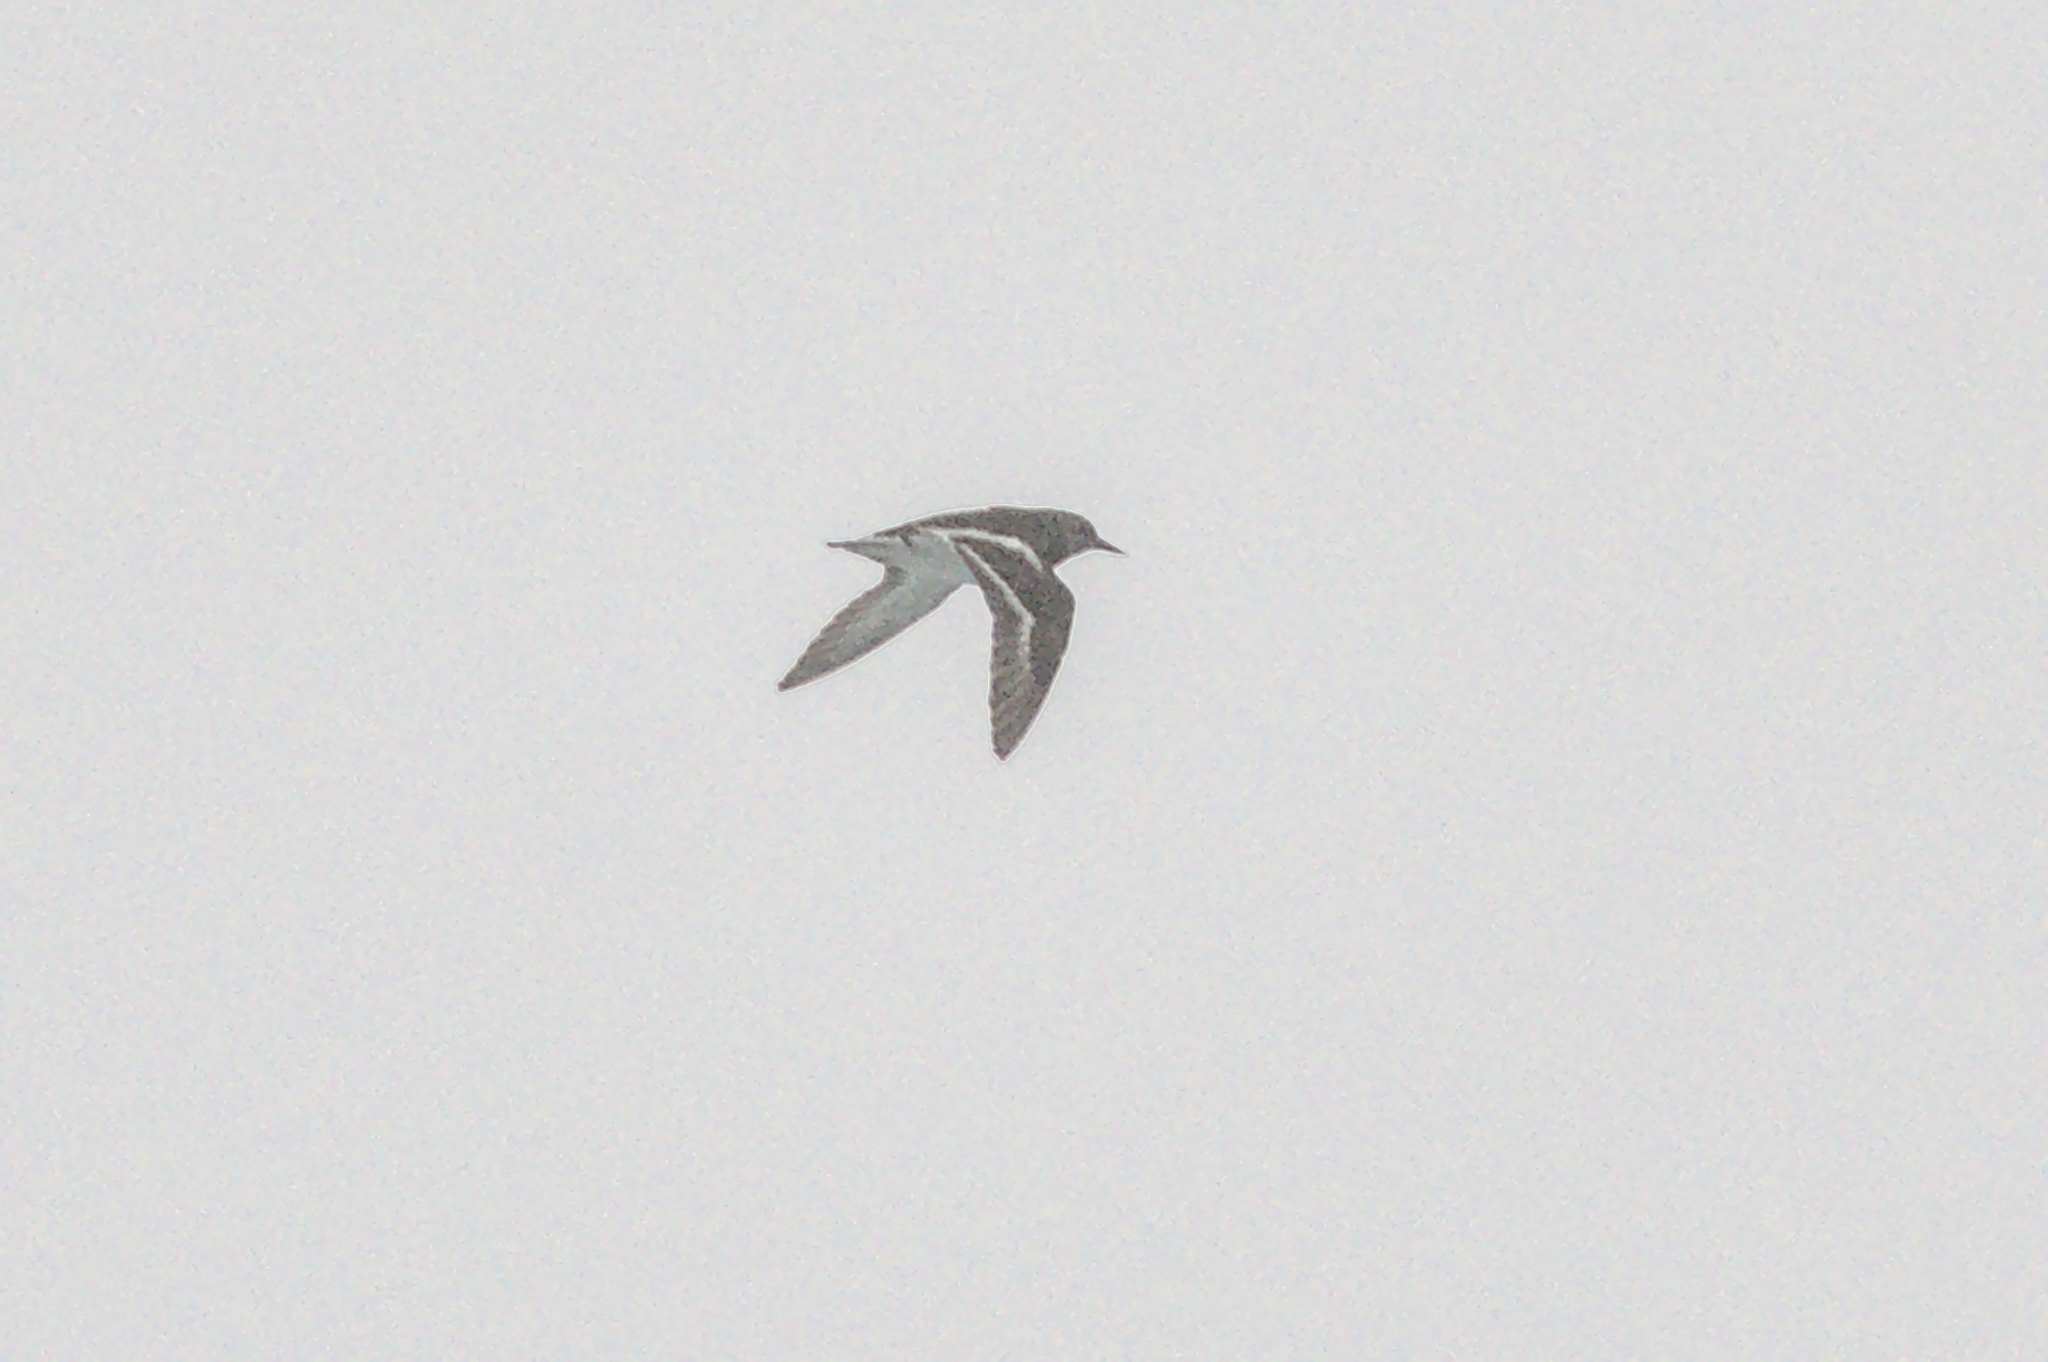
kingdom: Animalia
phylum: Chordata
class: Aves
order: Charadriiformes
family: Scolopacidae
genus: Arenaria
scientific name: Arenaria interpres
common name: Ruddy turnstone
